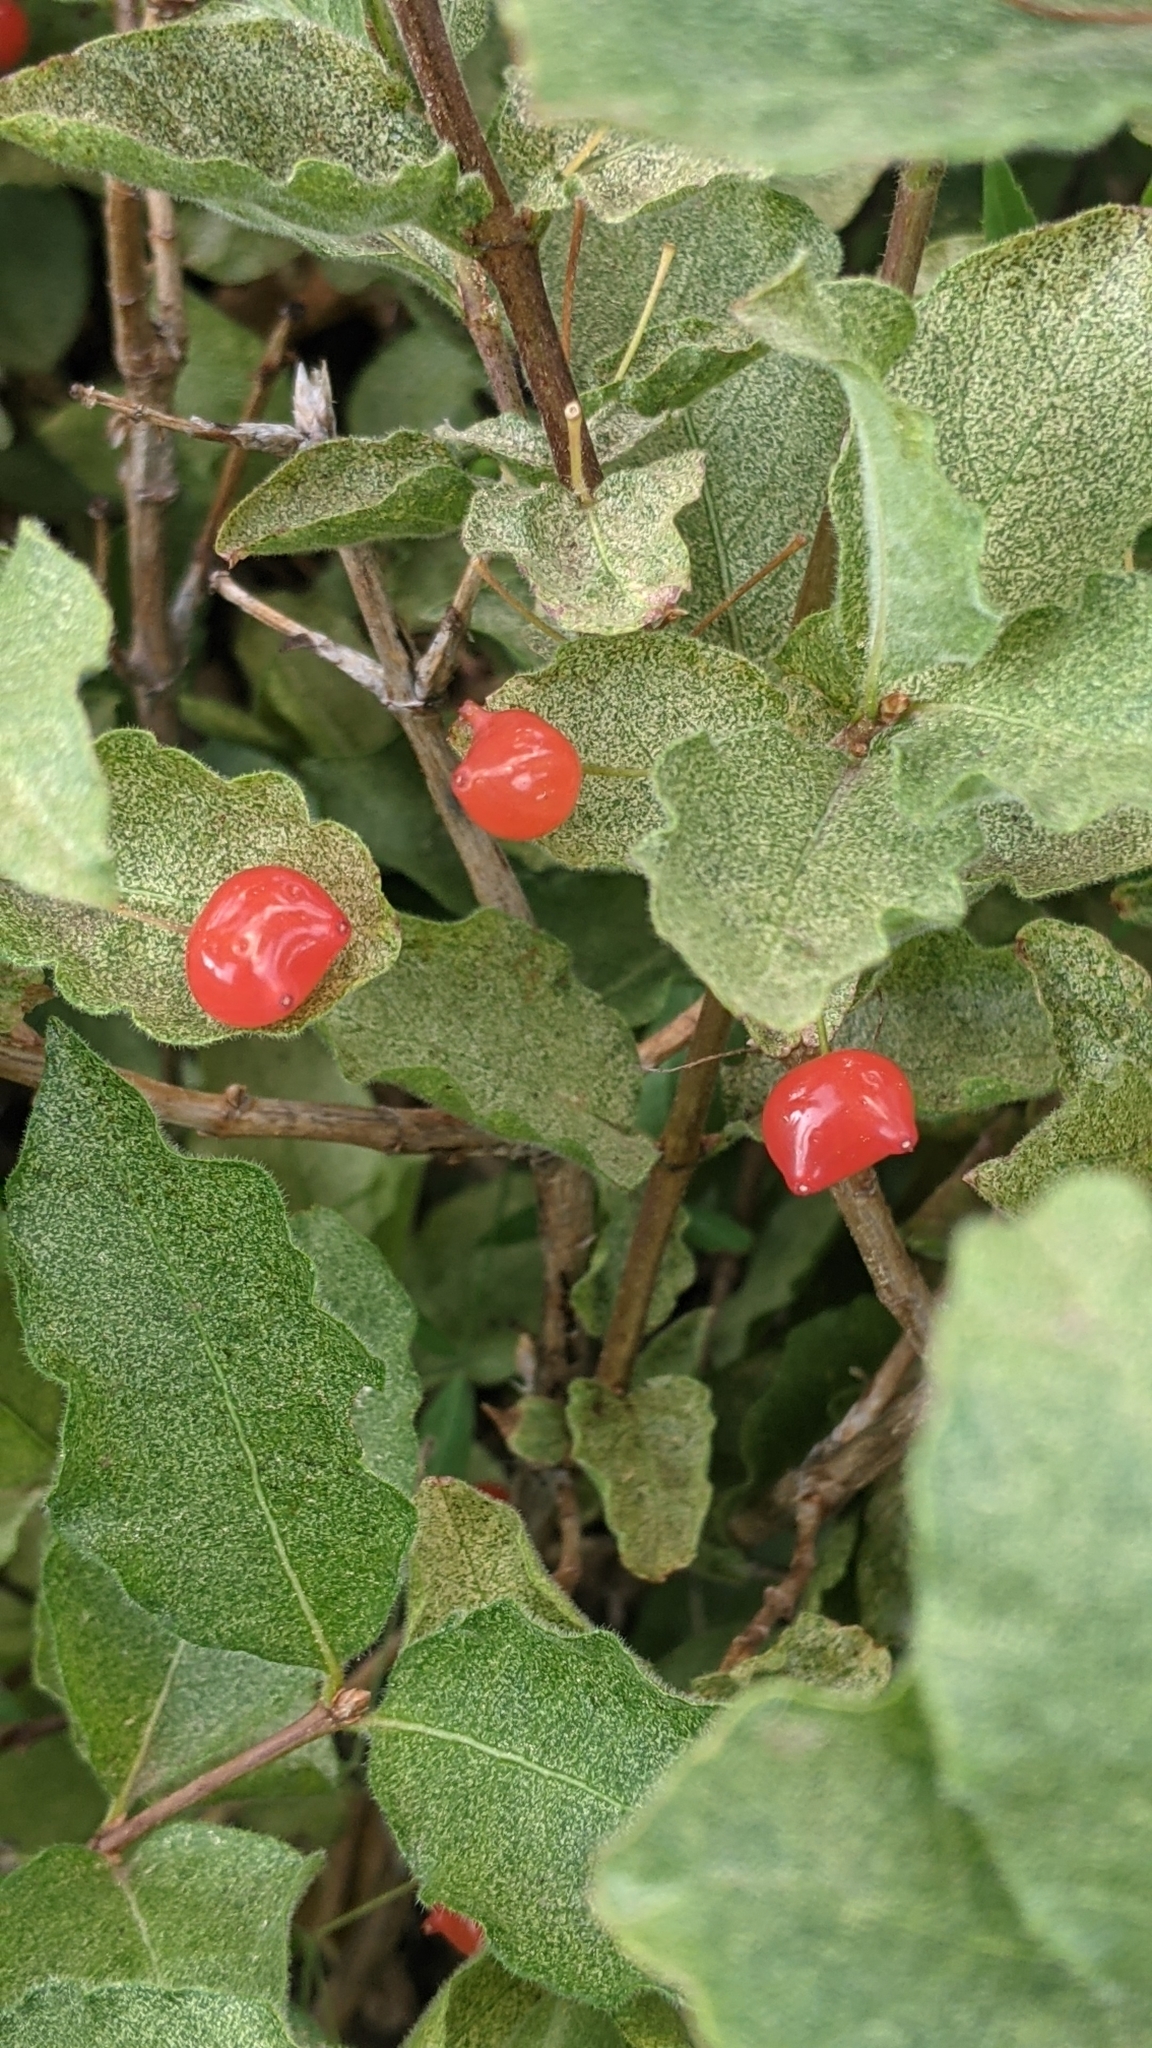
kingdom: Plantae
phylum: Tracheophyta
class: Magnoliopsida
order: Dipsacales
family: Caprifoliaceae
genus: Lonicera
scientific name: Lonicera conjugialis
